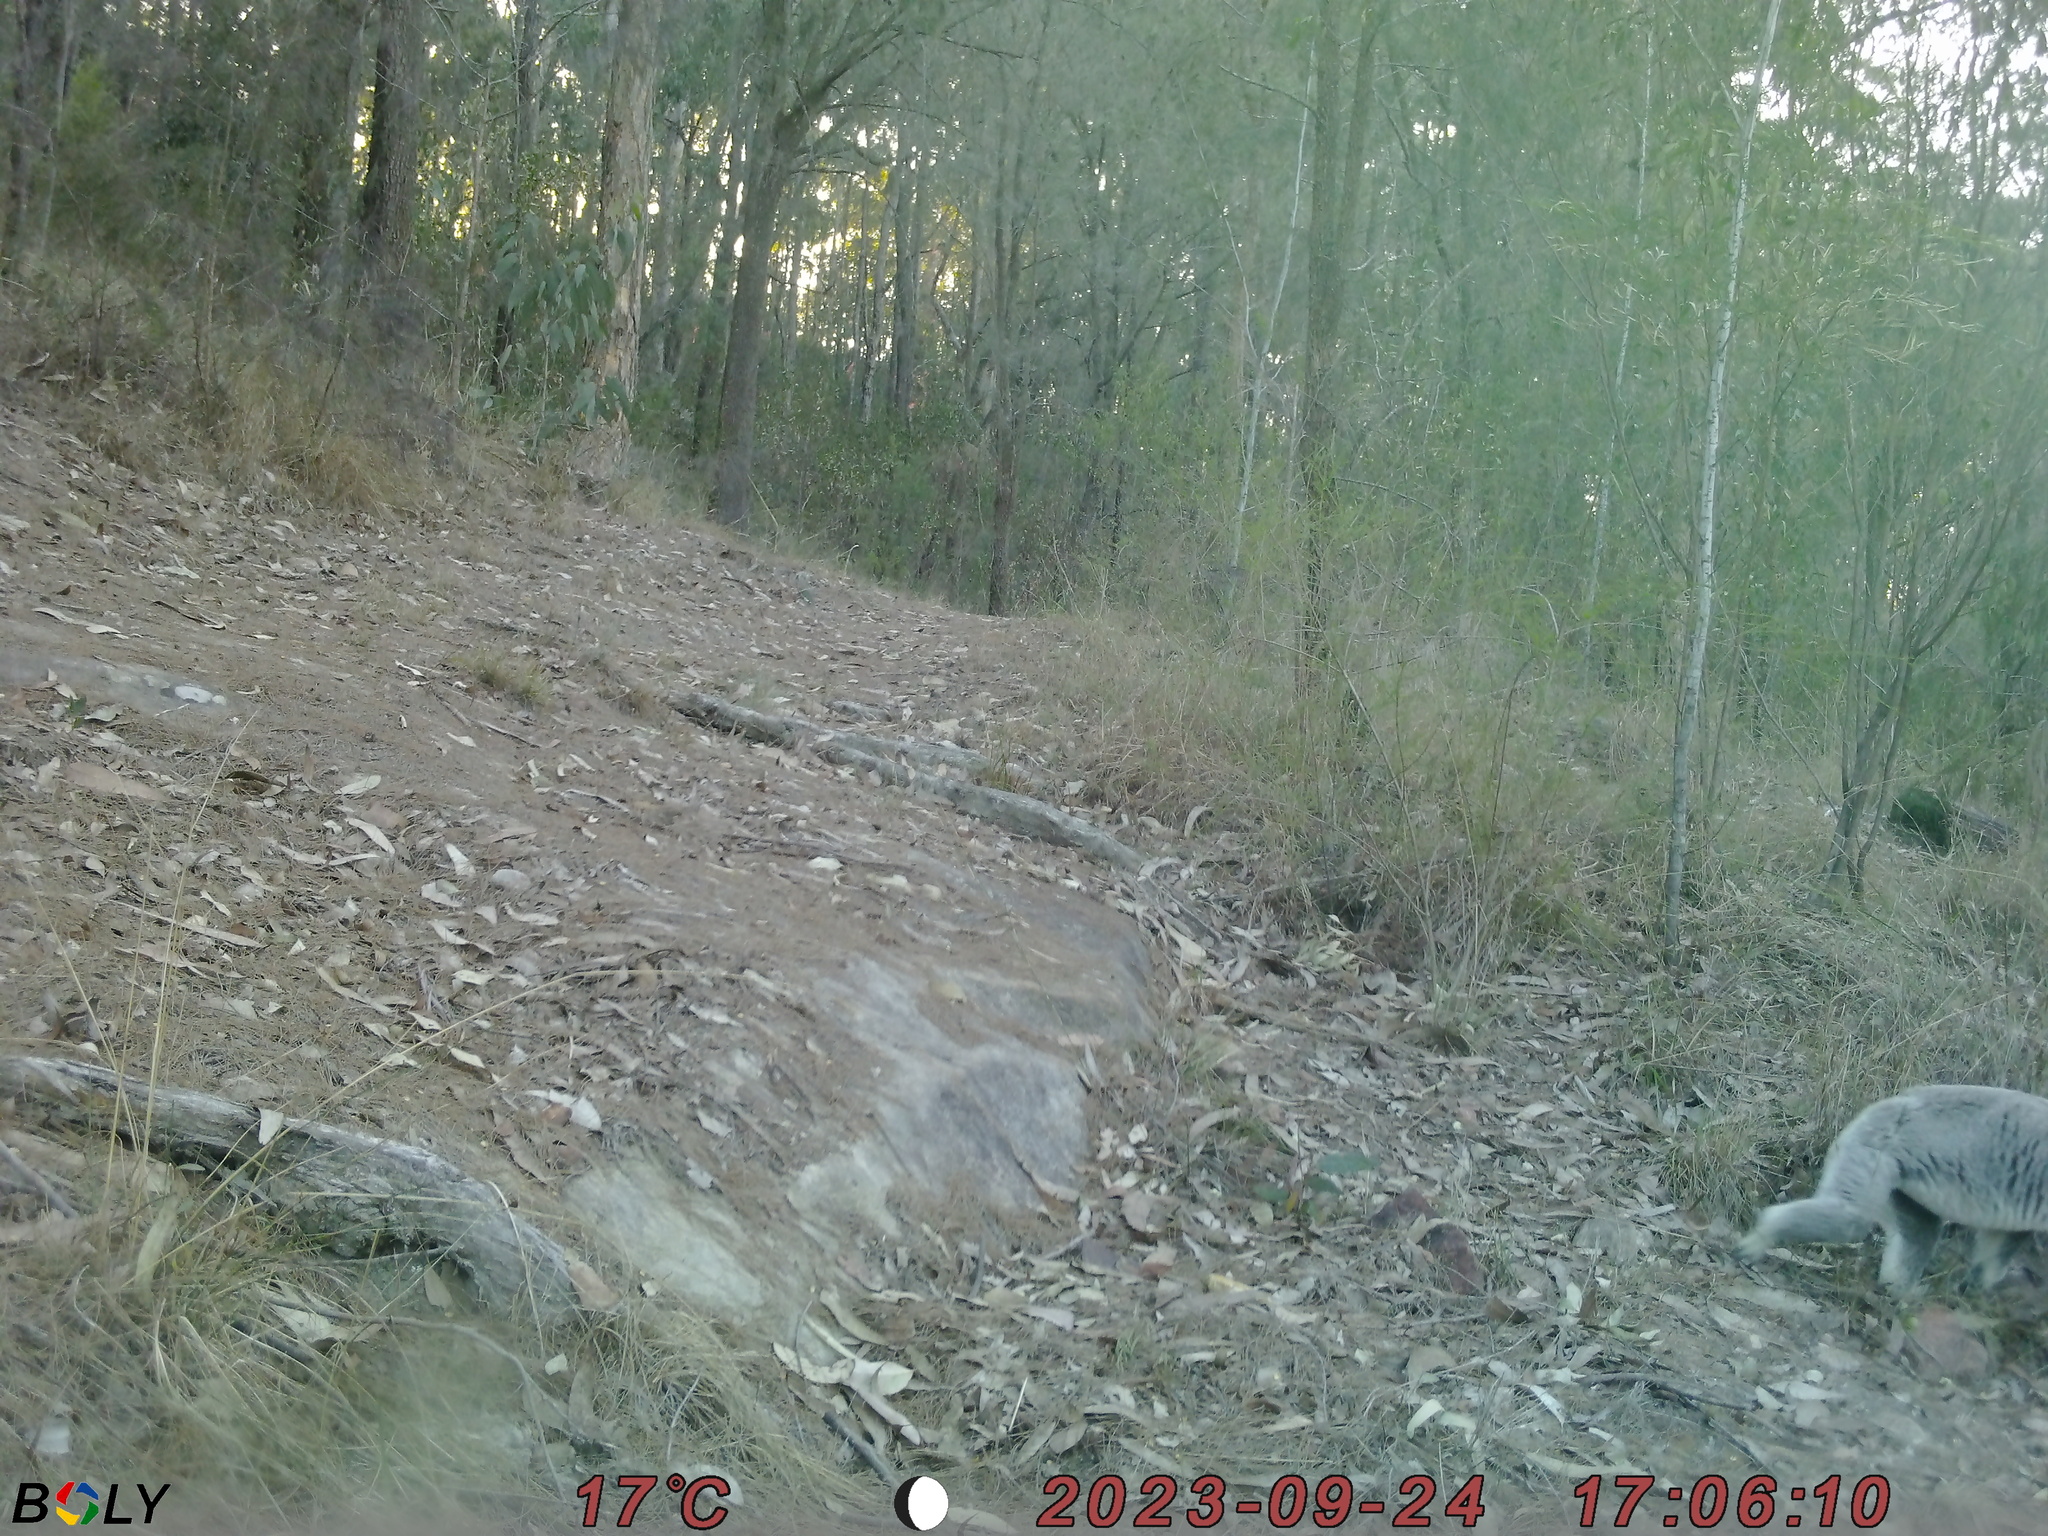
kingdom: Animalia
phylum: Chordata
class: Mammalia
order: Diprotodontia
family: Phascolarctidae
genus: Phascolarctos
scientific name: Phascolarctos cinereus
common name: Koala
